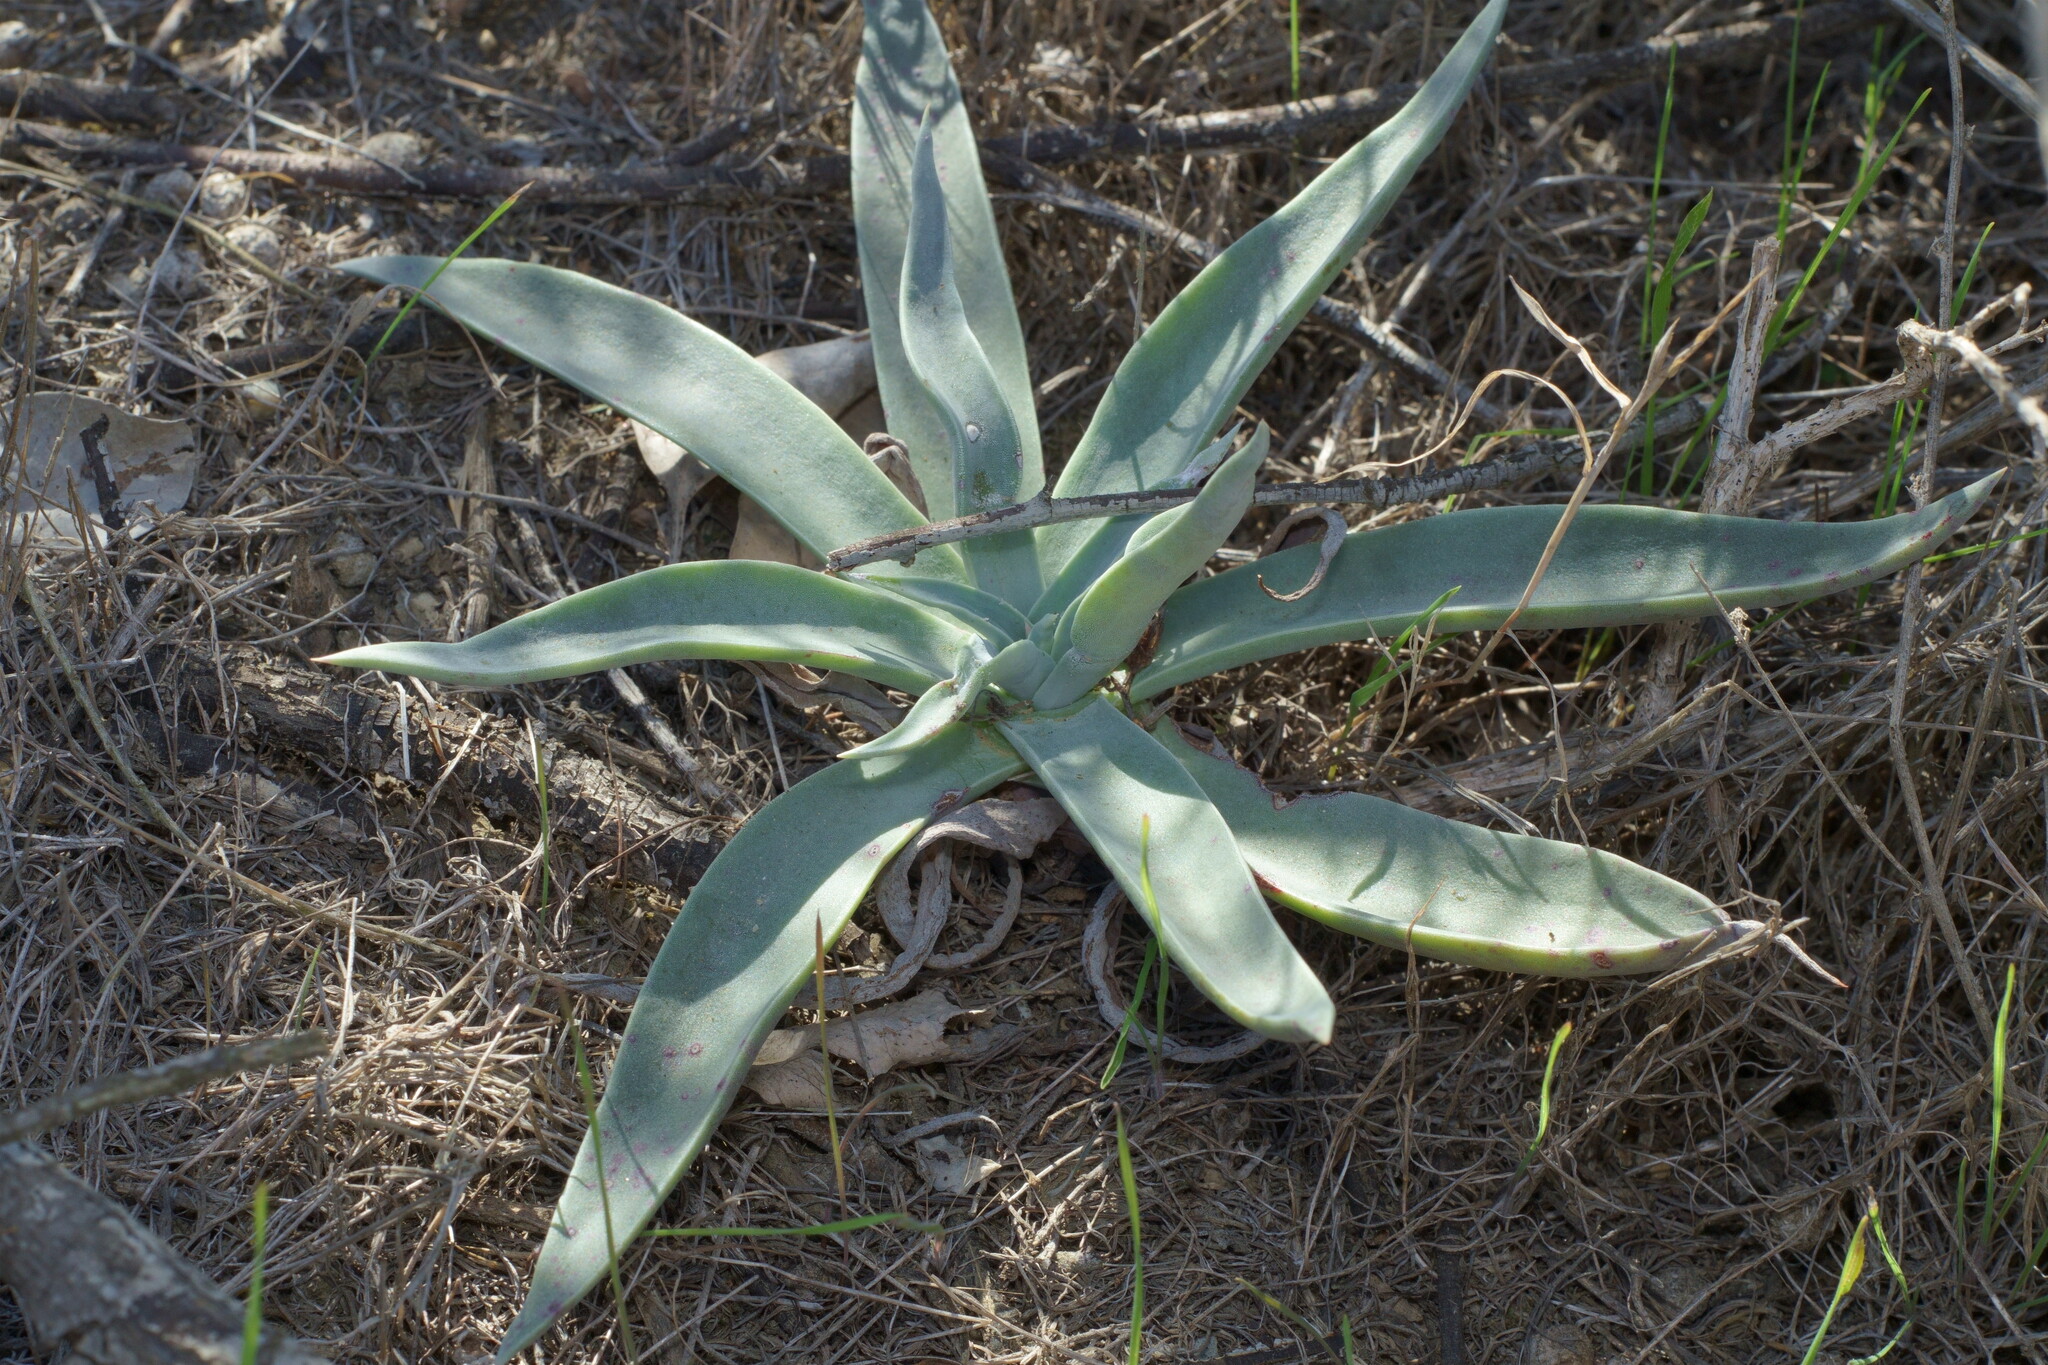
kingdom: Plantae
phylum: Tracheophyta
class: Magnoliopsida
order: Saxifragales
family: Crassulaceae
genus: Dudleya
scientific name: Dudleya lanceolata
